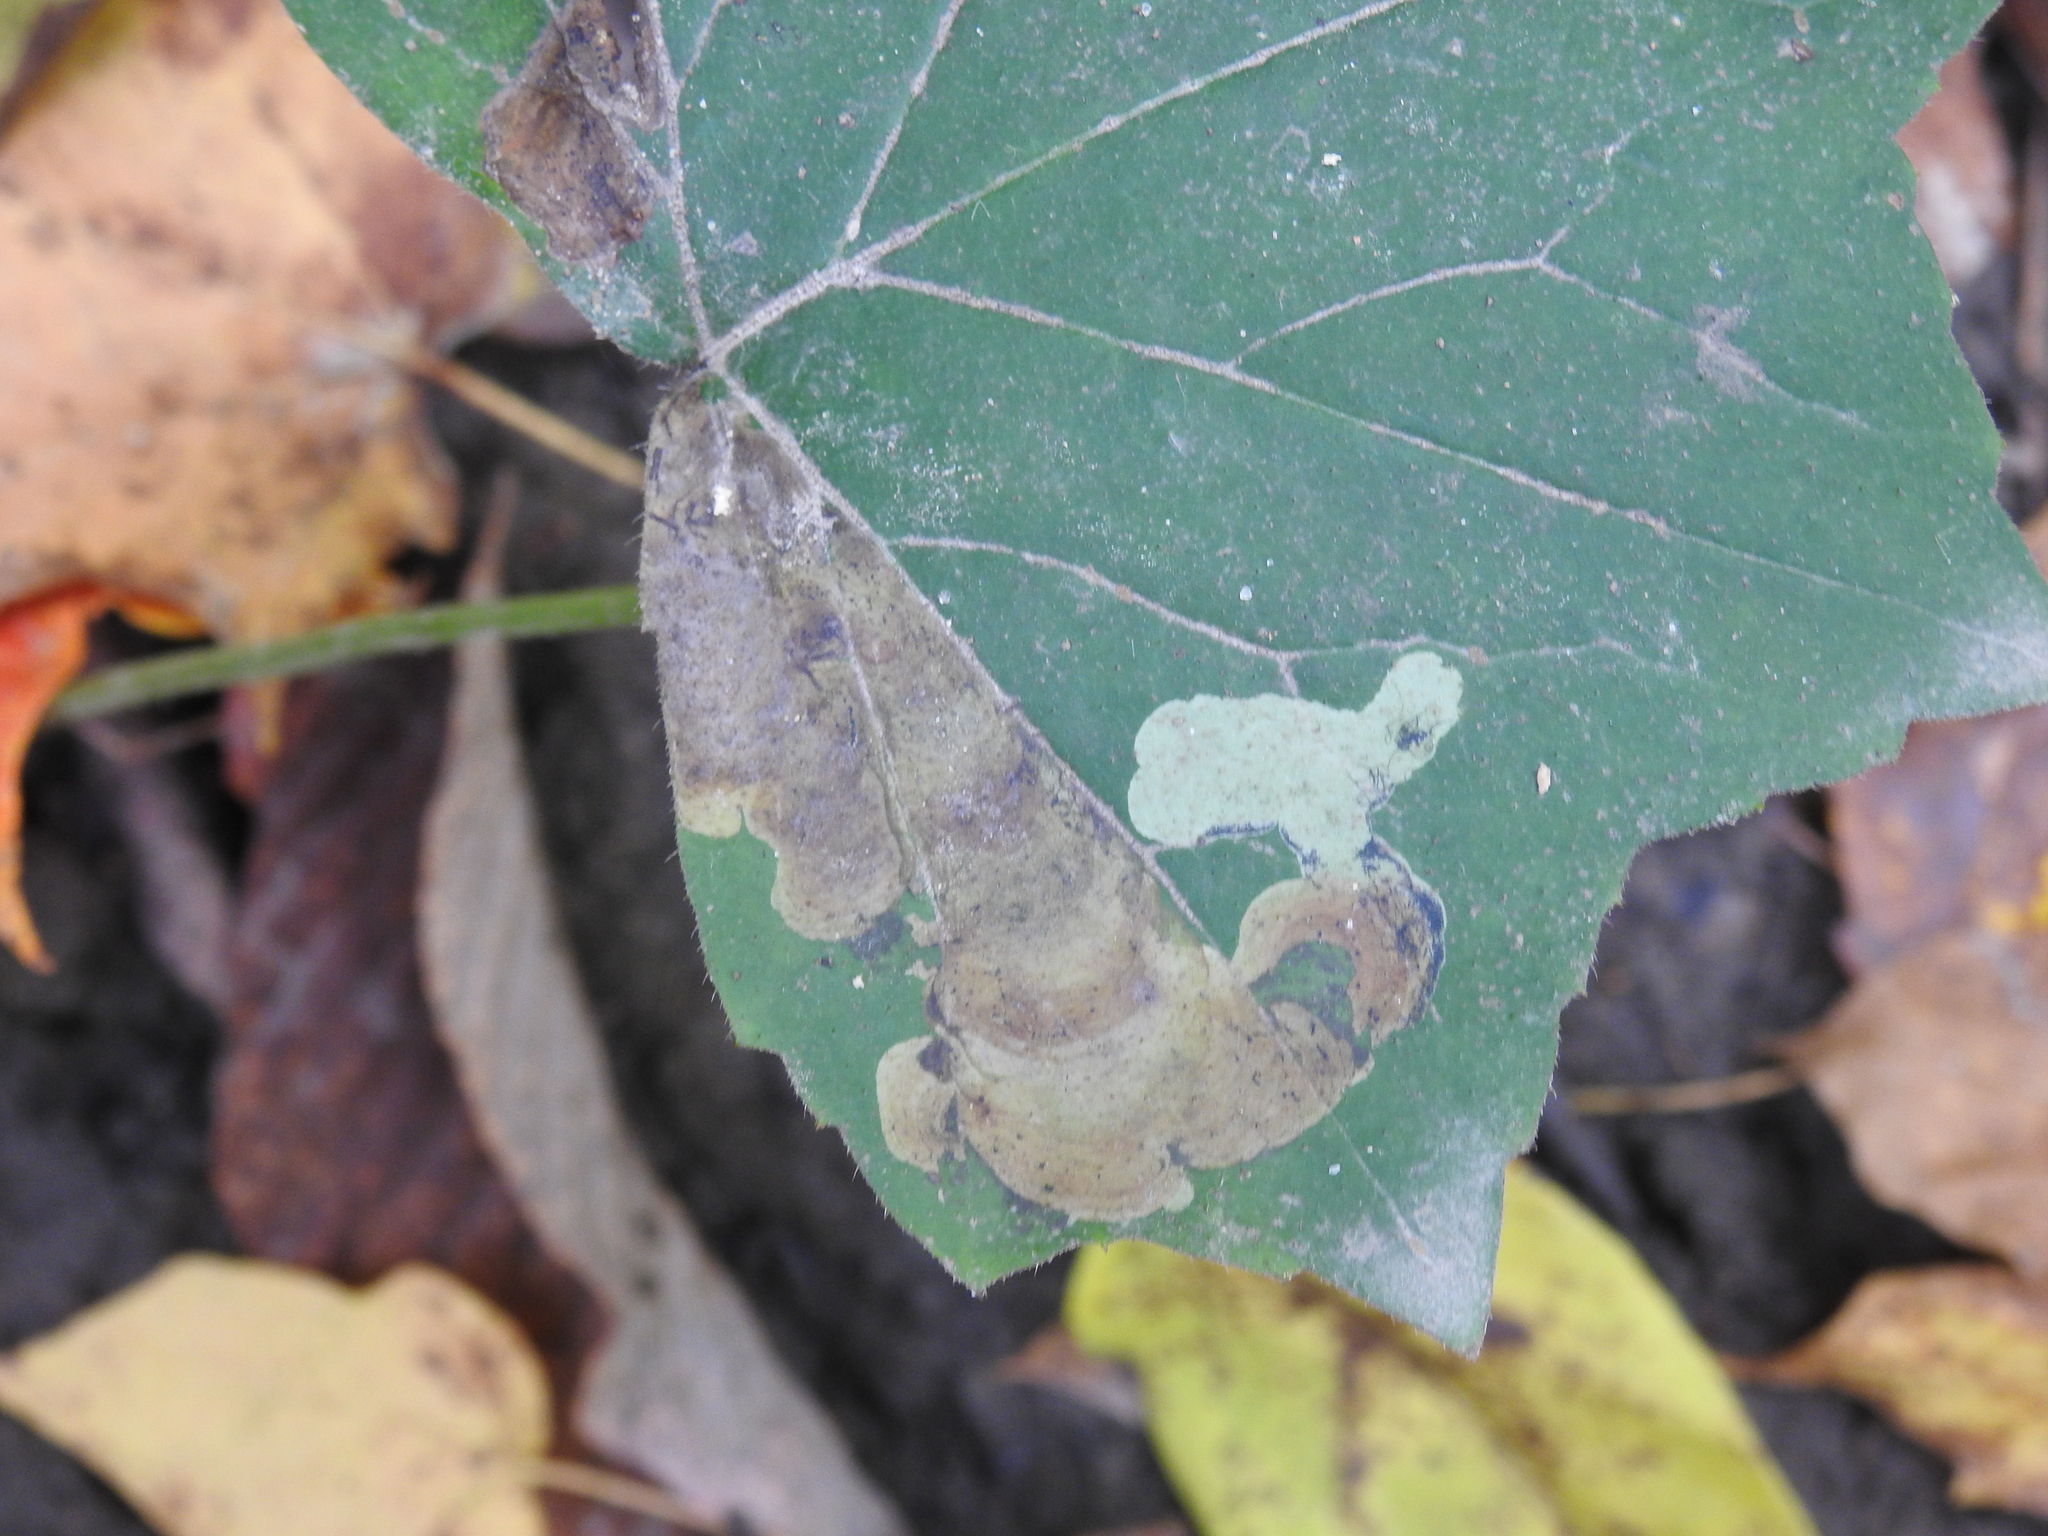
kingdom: Animalia
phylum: Arthropoda
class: Insecta
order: Diptera
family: Agromyzidae
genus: Phytomyza
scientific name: Phytomyza hydrophyllivora
